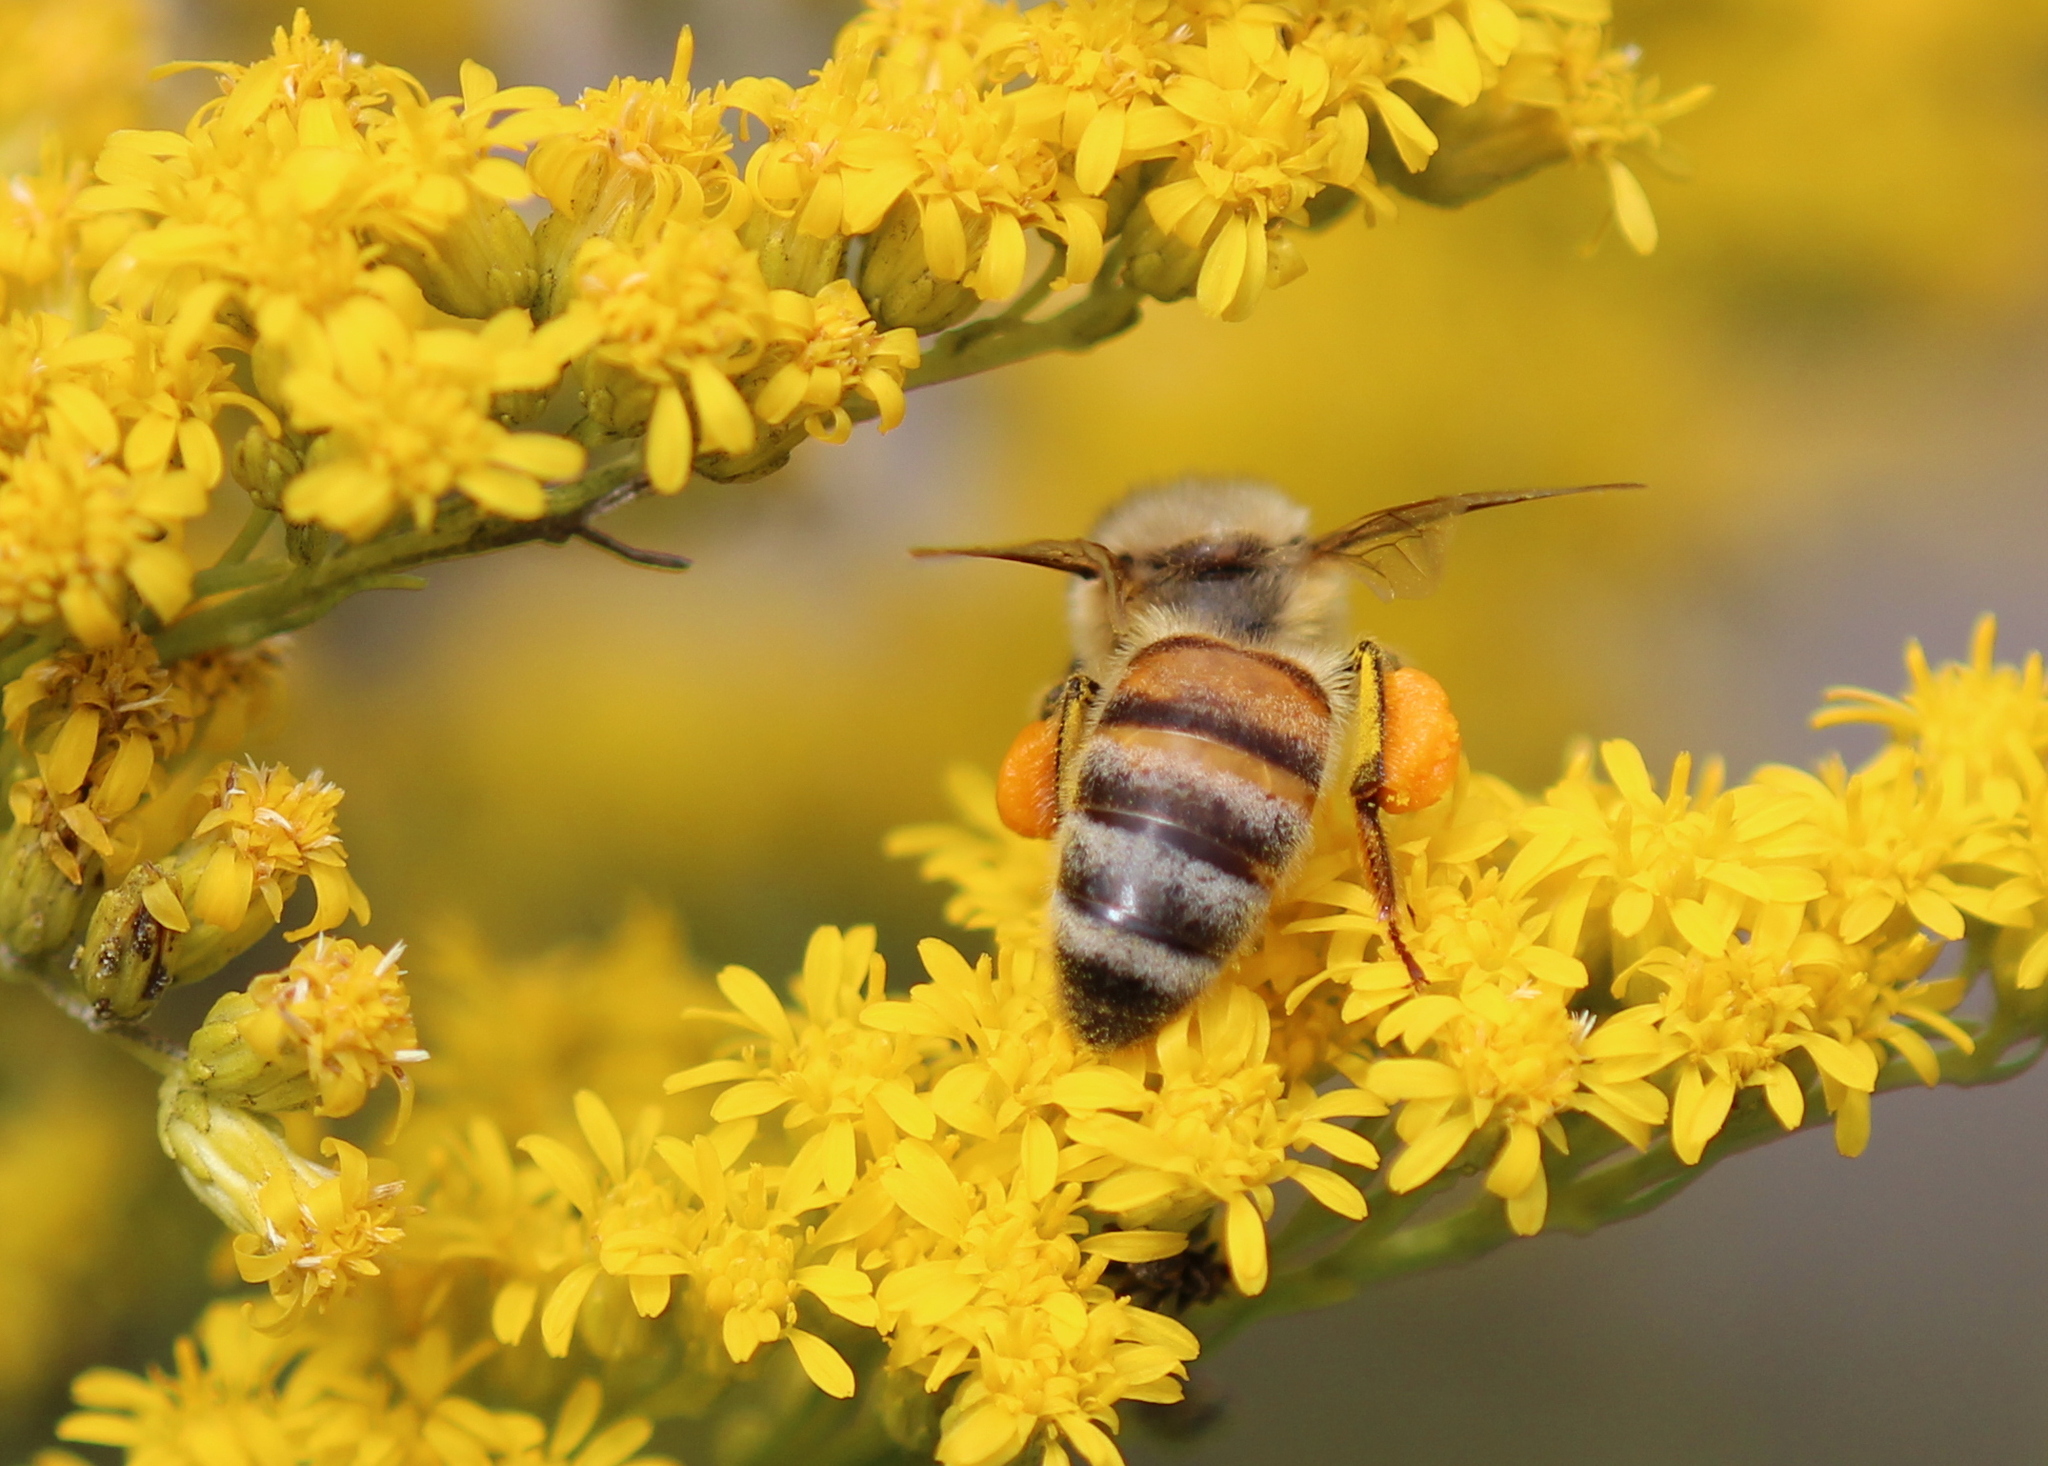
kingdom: Animalia
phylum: Arthropoda
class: Insecta
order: Hymenoptera
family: Apidae
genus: Apis
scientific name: Apis mellifera
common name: Honey bee
